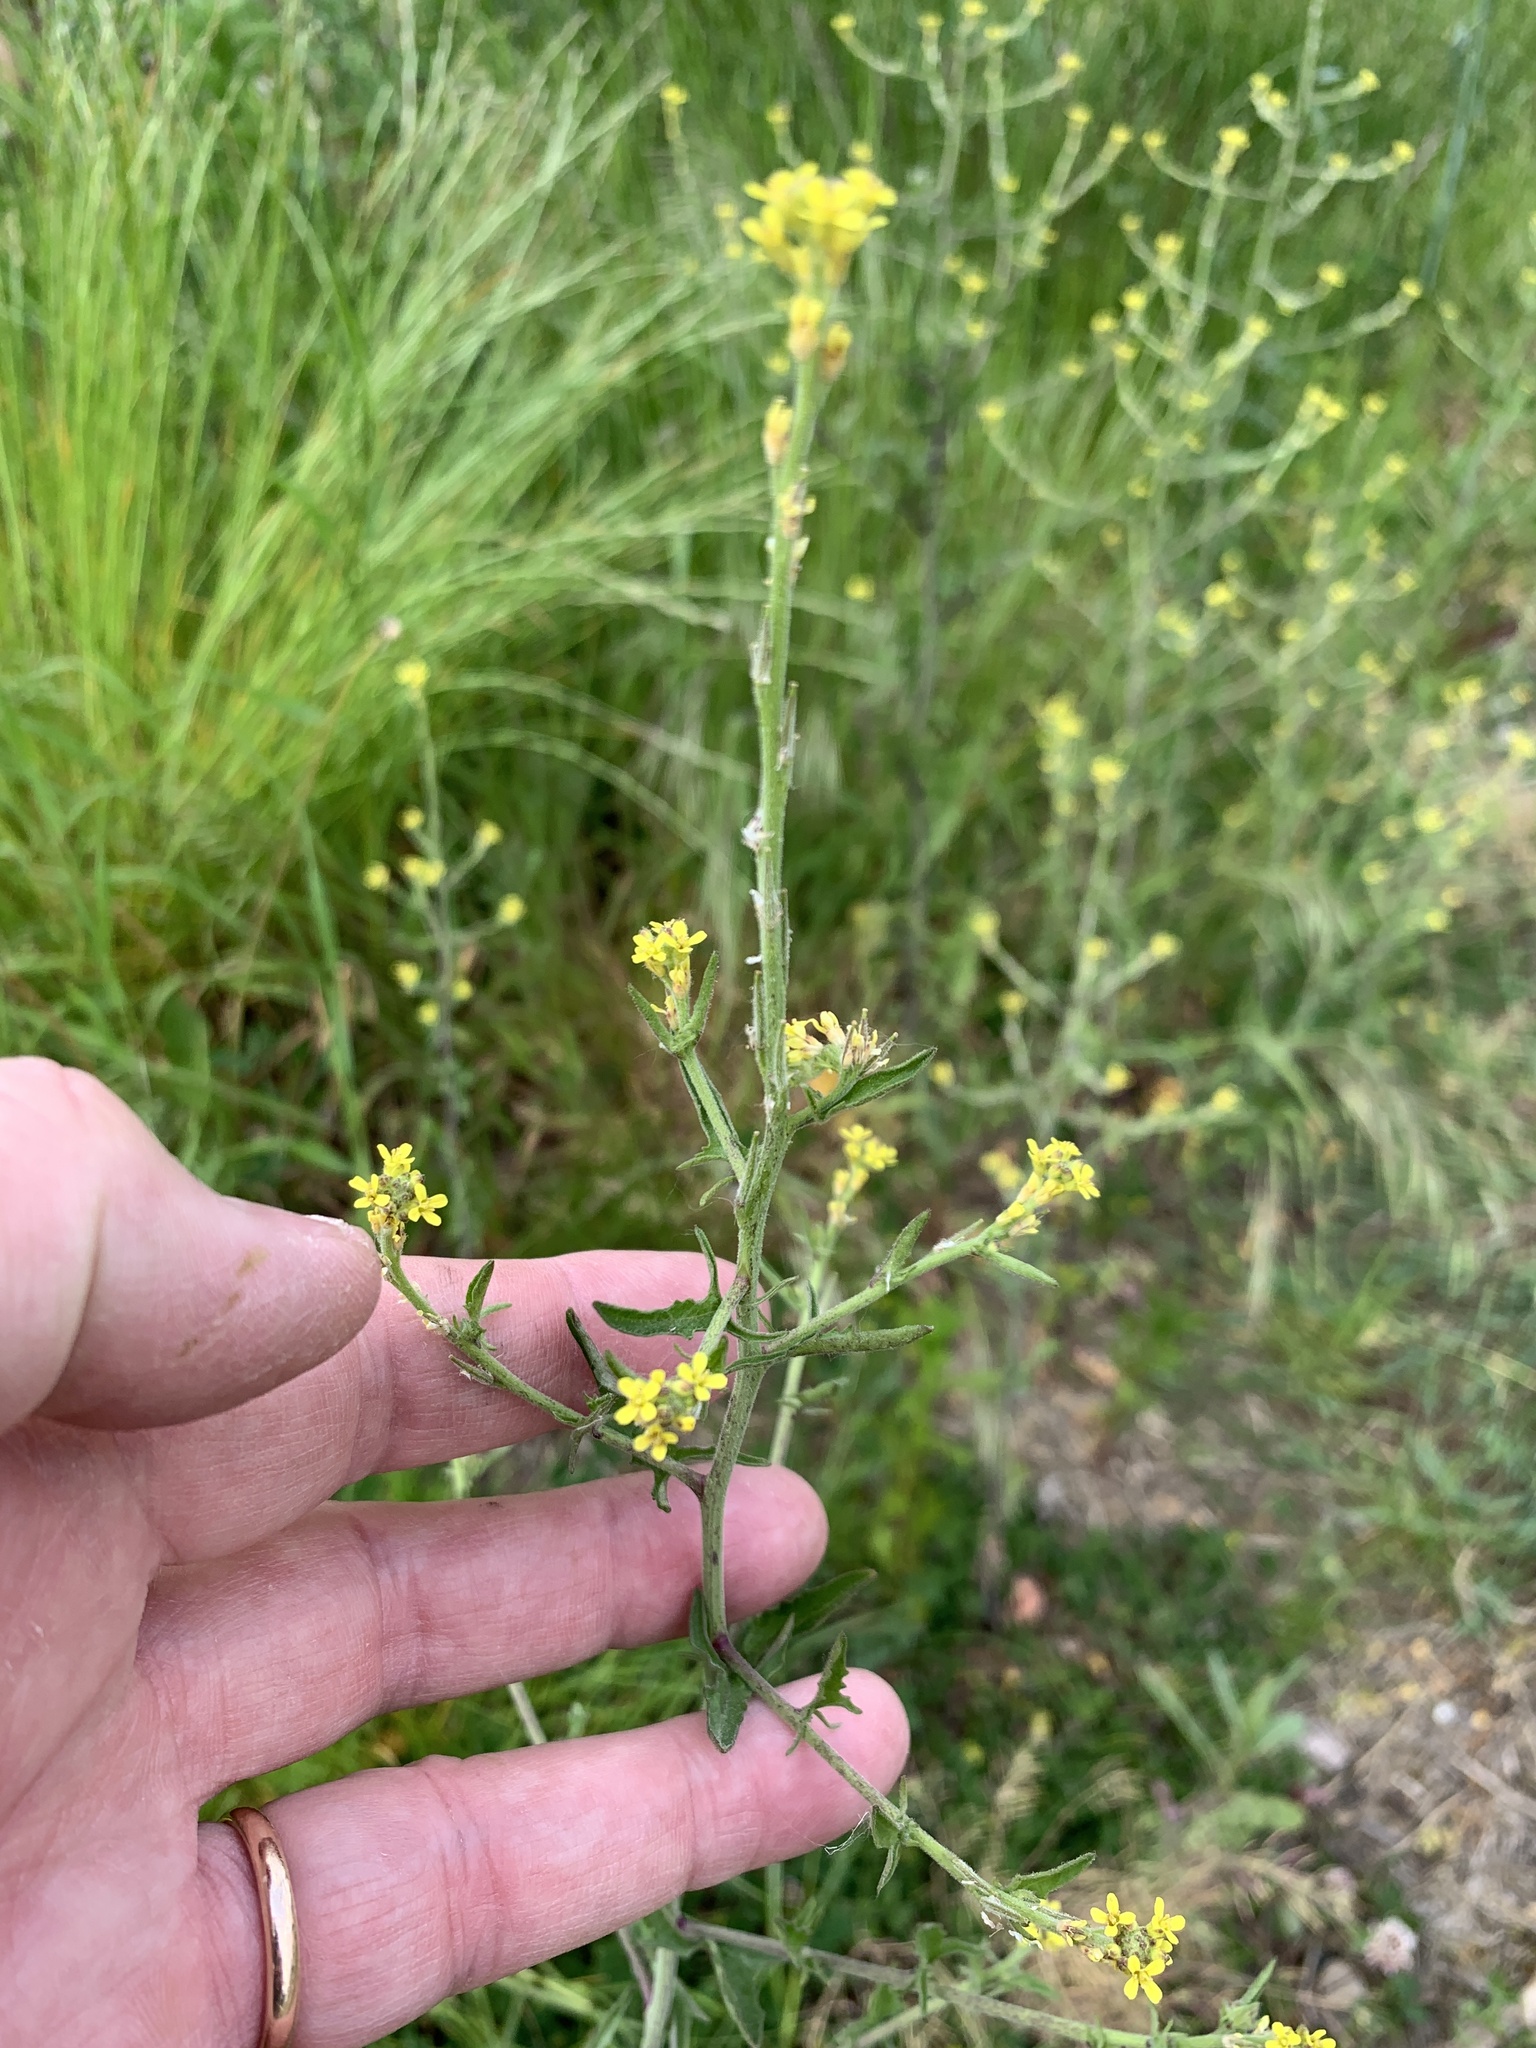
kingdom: Plantae
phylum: Tracheophyta
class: Magnoliopsida
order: Brassicales
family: Brassicaceae
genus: Sisymbrium
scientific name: Sisymbrium officinale
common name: Hedge mustard
